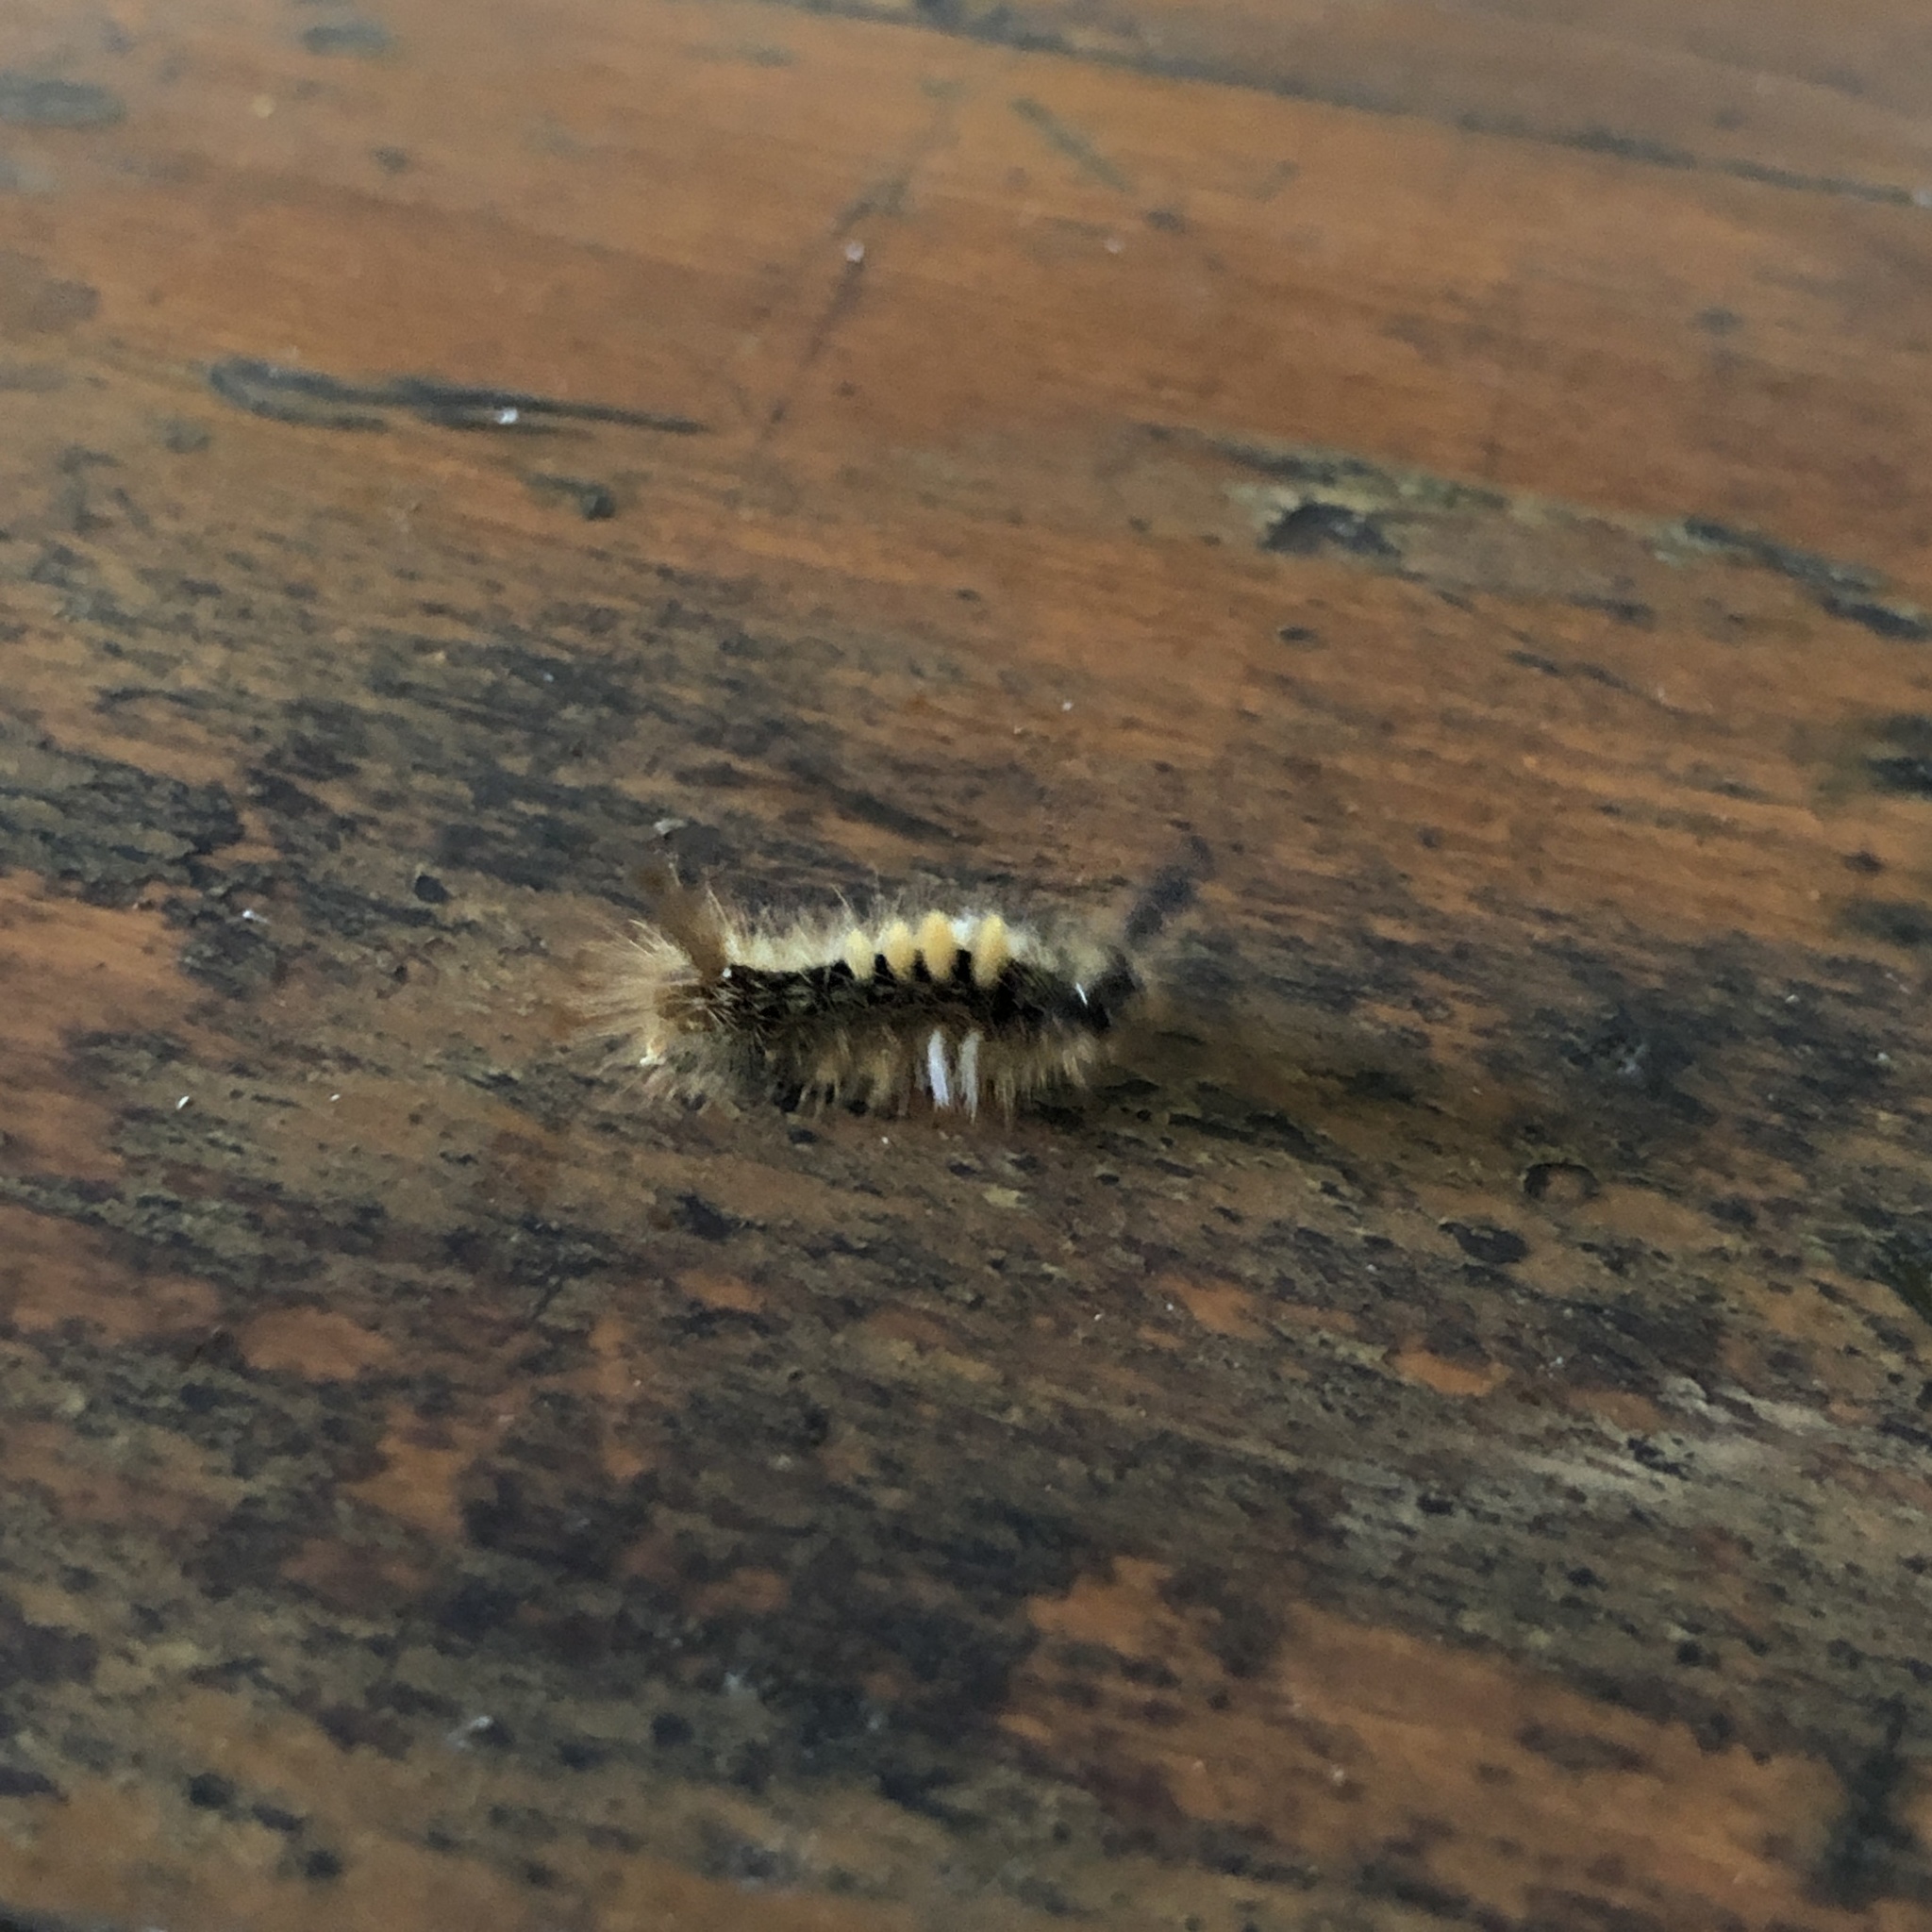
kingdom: Animalia
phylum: Arthropoda
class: Insecta
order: Lepidoptera
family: Erebidae
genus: Orgyia
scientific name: Orgyia postica
